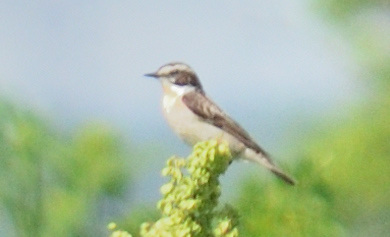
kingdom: Animalia
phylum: Chordata
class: Aves
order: Passeriformes
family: Muscicapidae
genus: Saxicola
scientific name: Saxicola rubetra
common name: Whinchat
